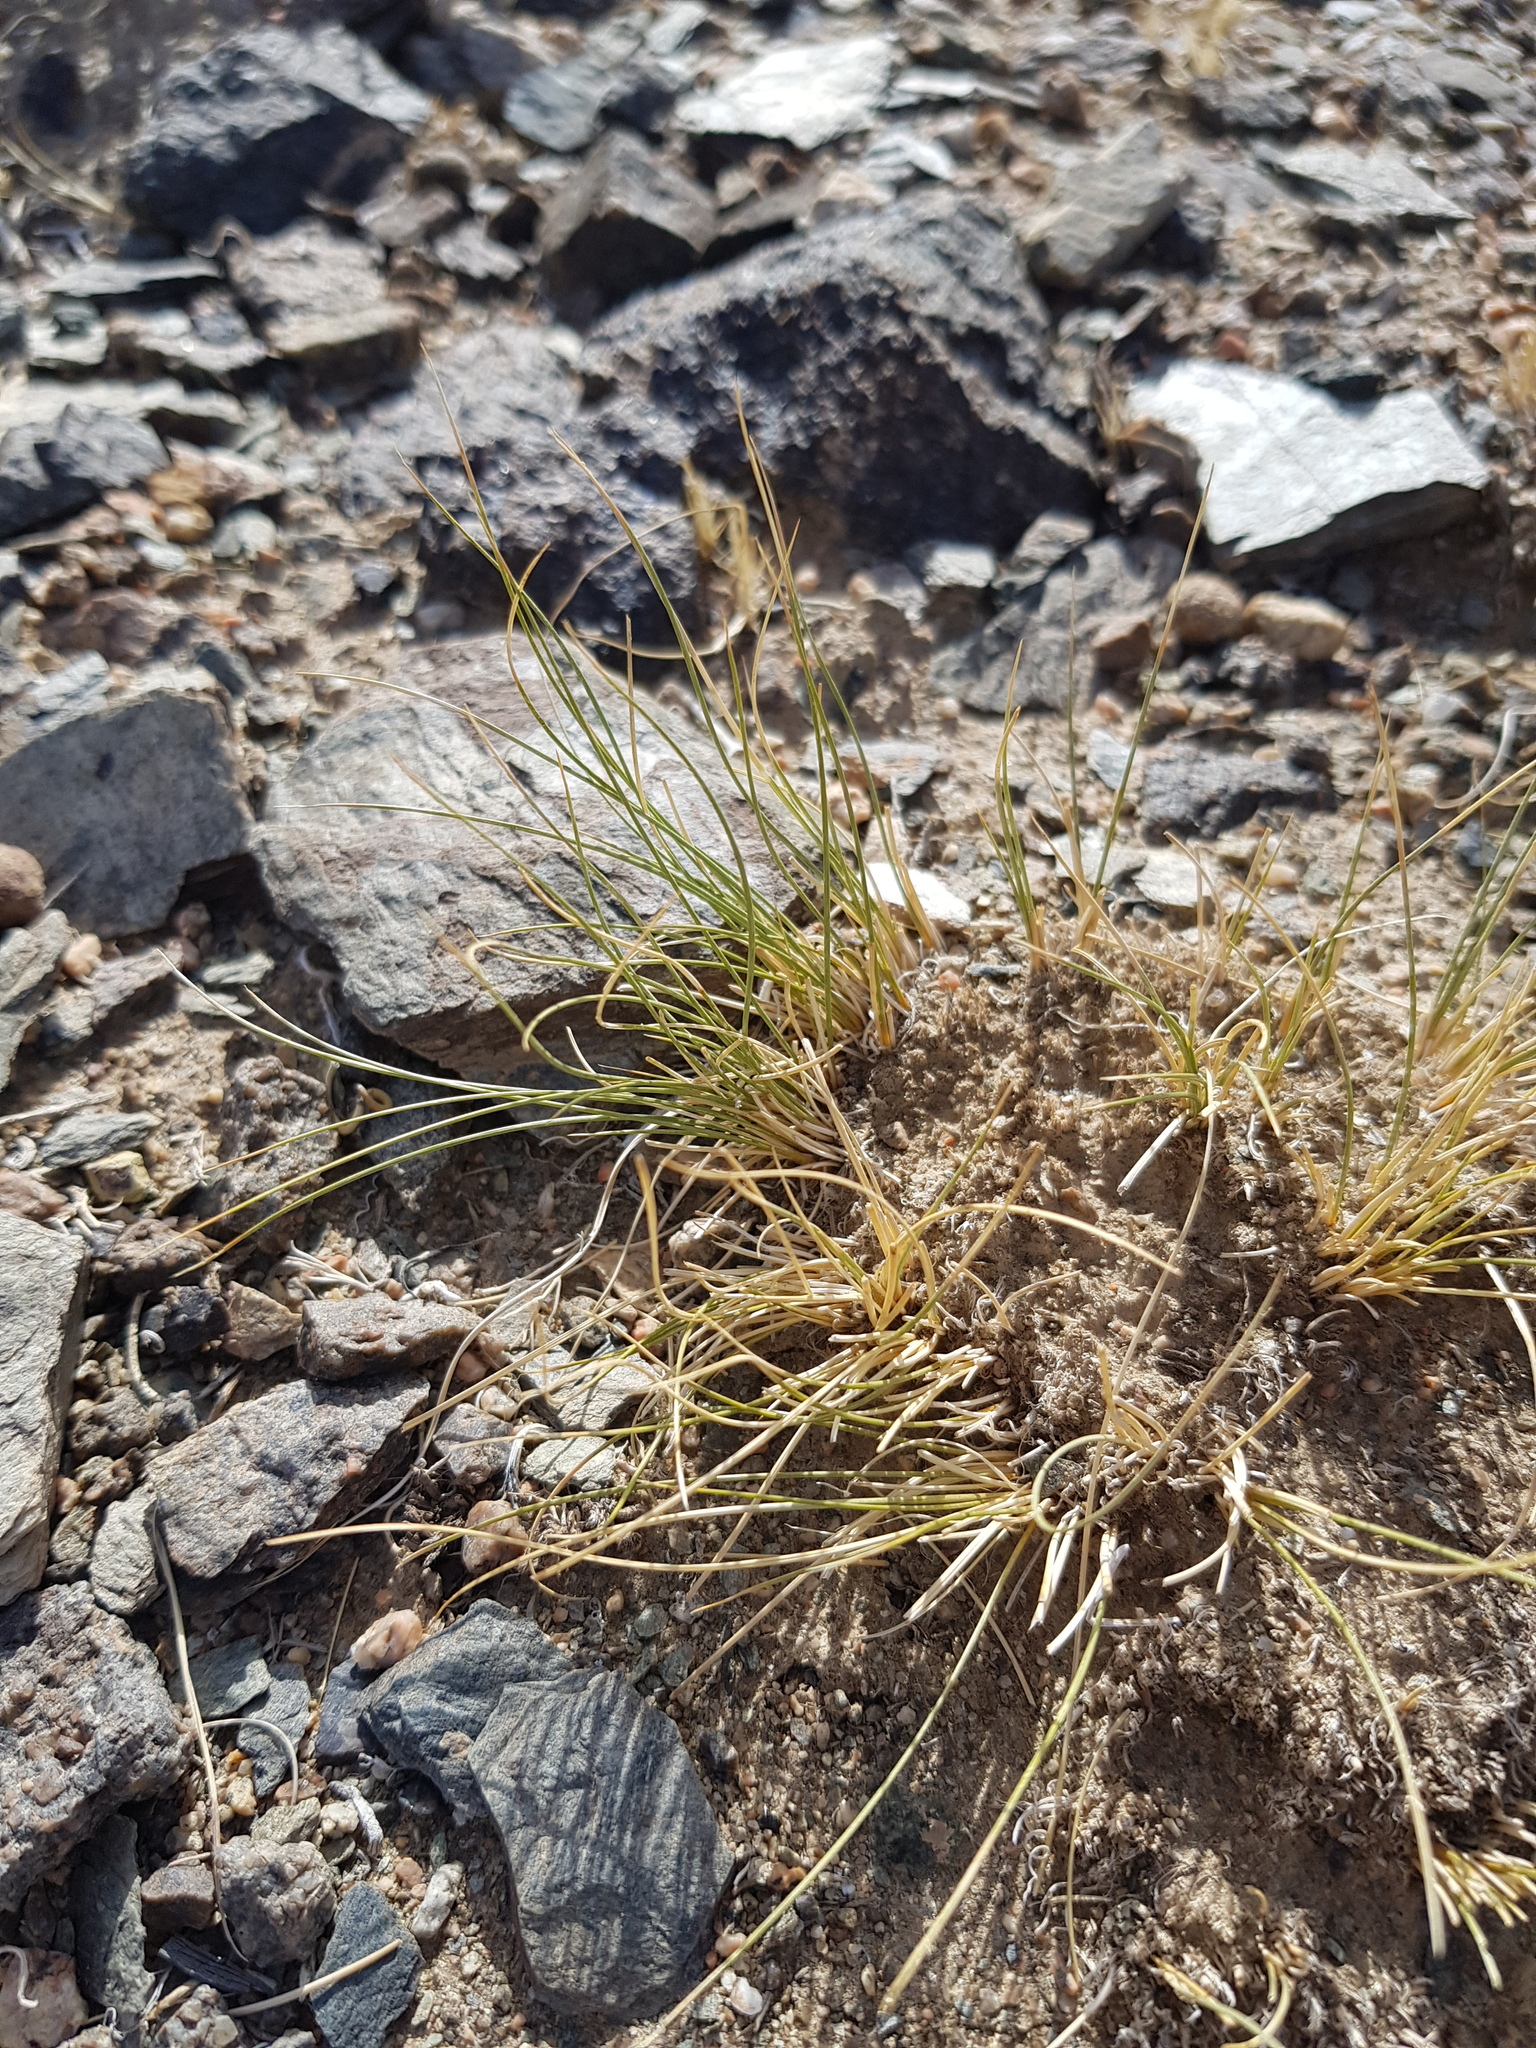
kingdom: Plantae
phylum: Tracheophyta
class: Liliopsida
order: Poales
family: Poaceae
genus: Stipa
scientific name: Stipa glareosa
